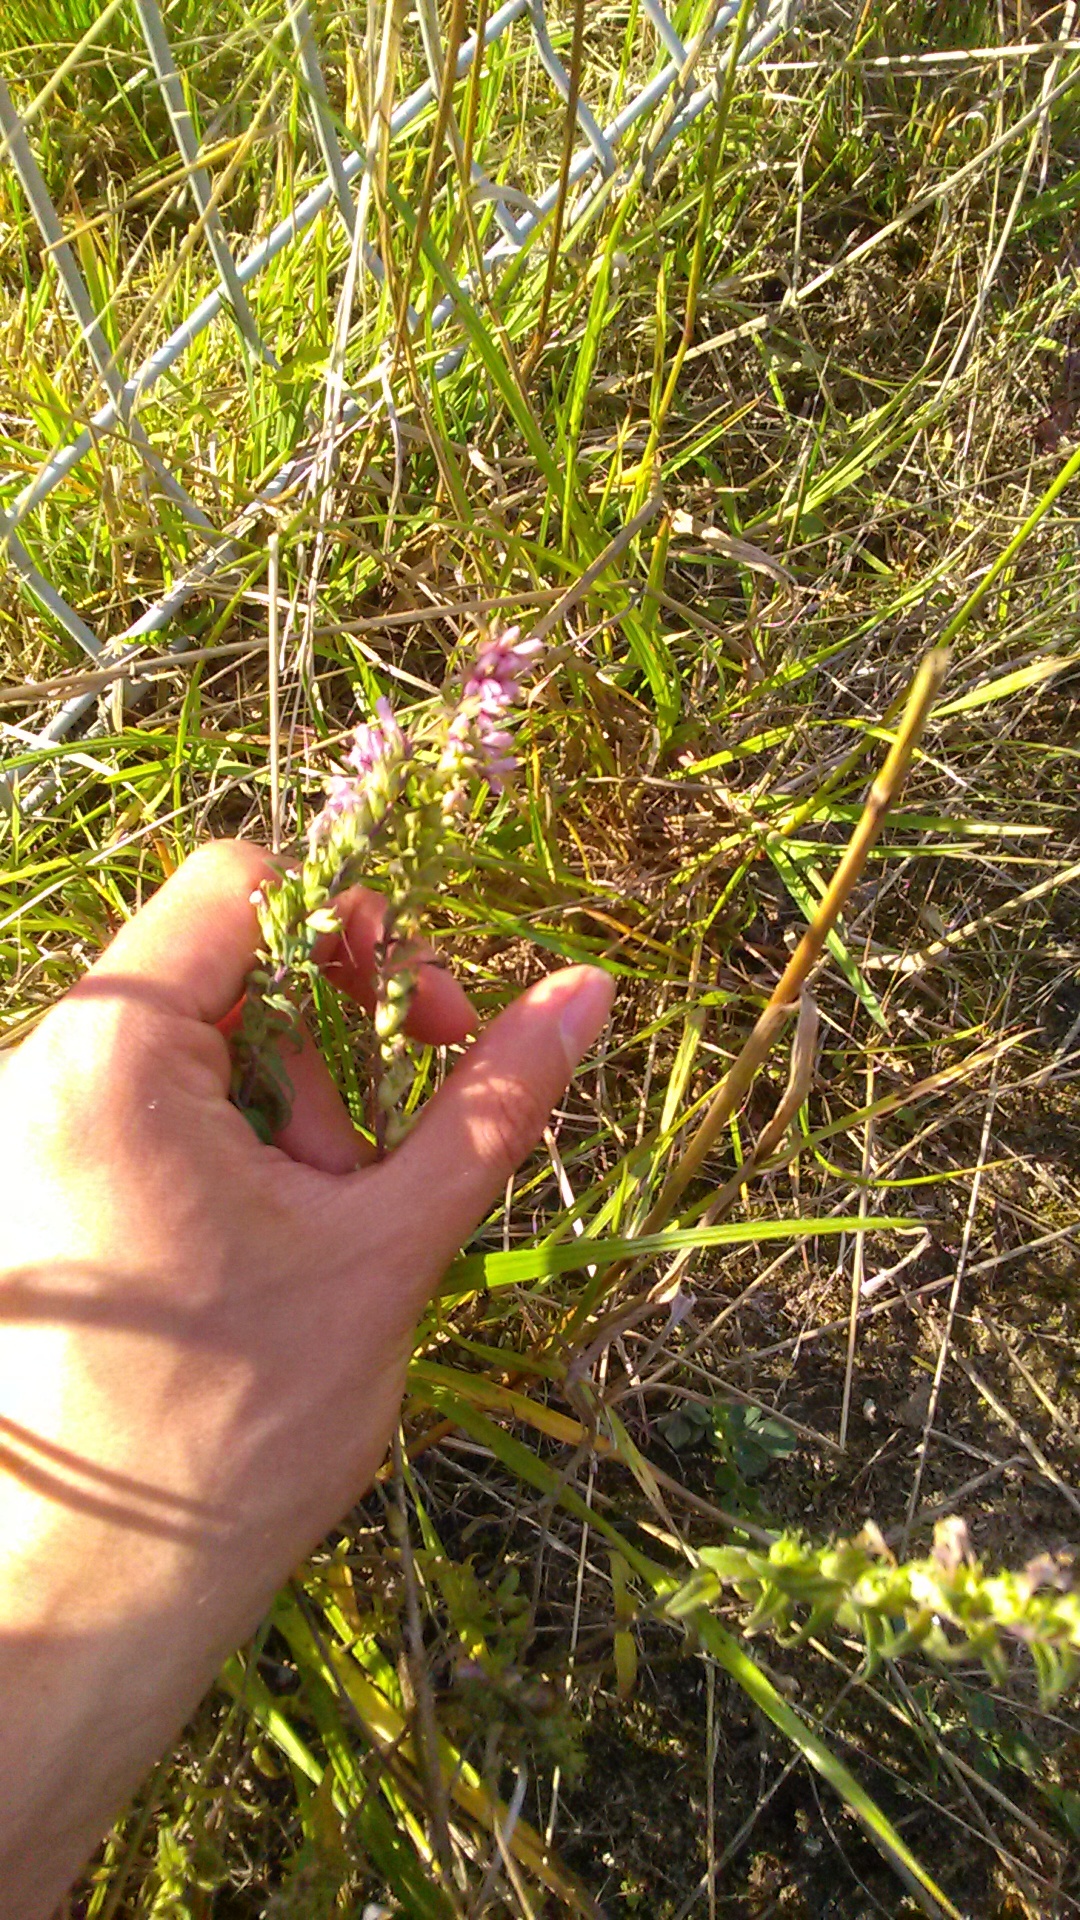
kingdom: Plantae
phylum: Tracheophyta
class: Magnoliopsida
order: Lamiales
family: Orobanchaceae
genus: Odontites
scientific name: Odontites vulgaris
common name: Broomrape
